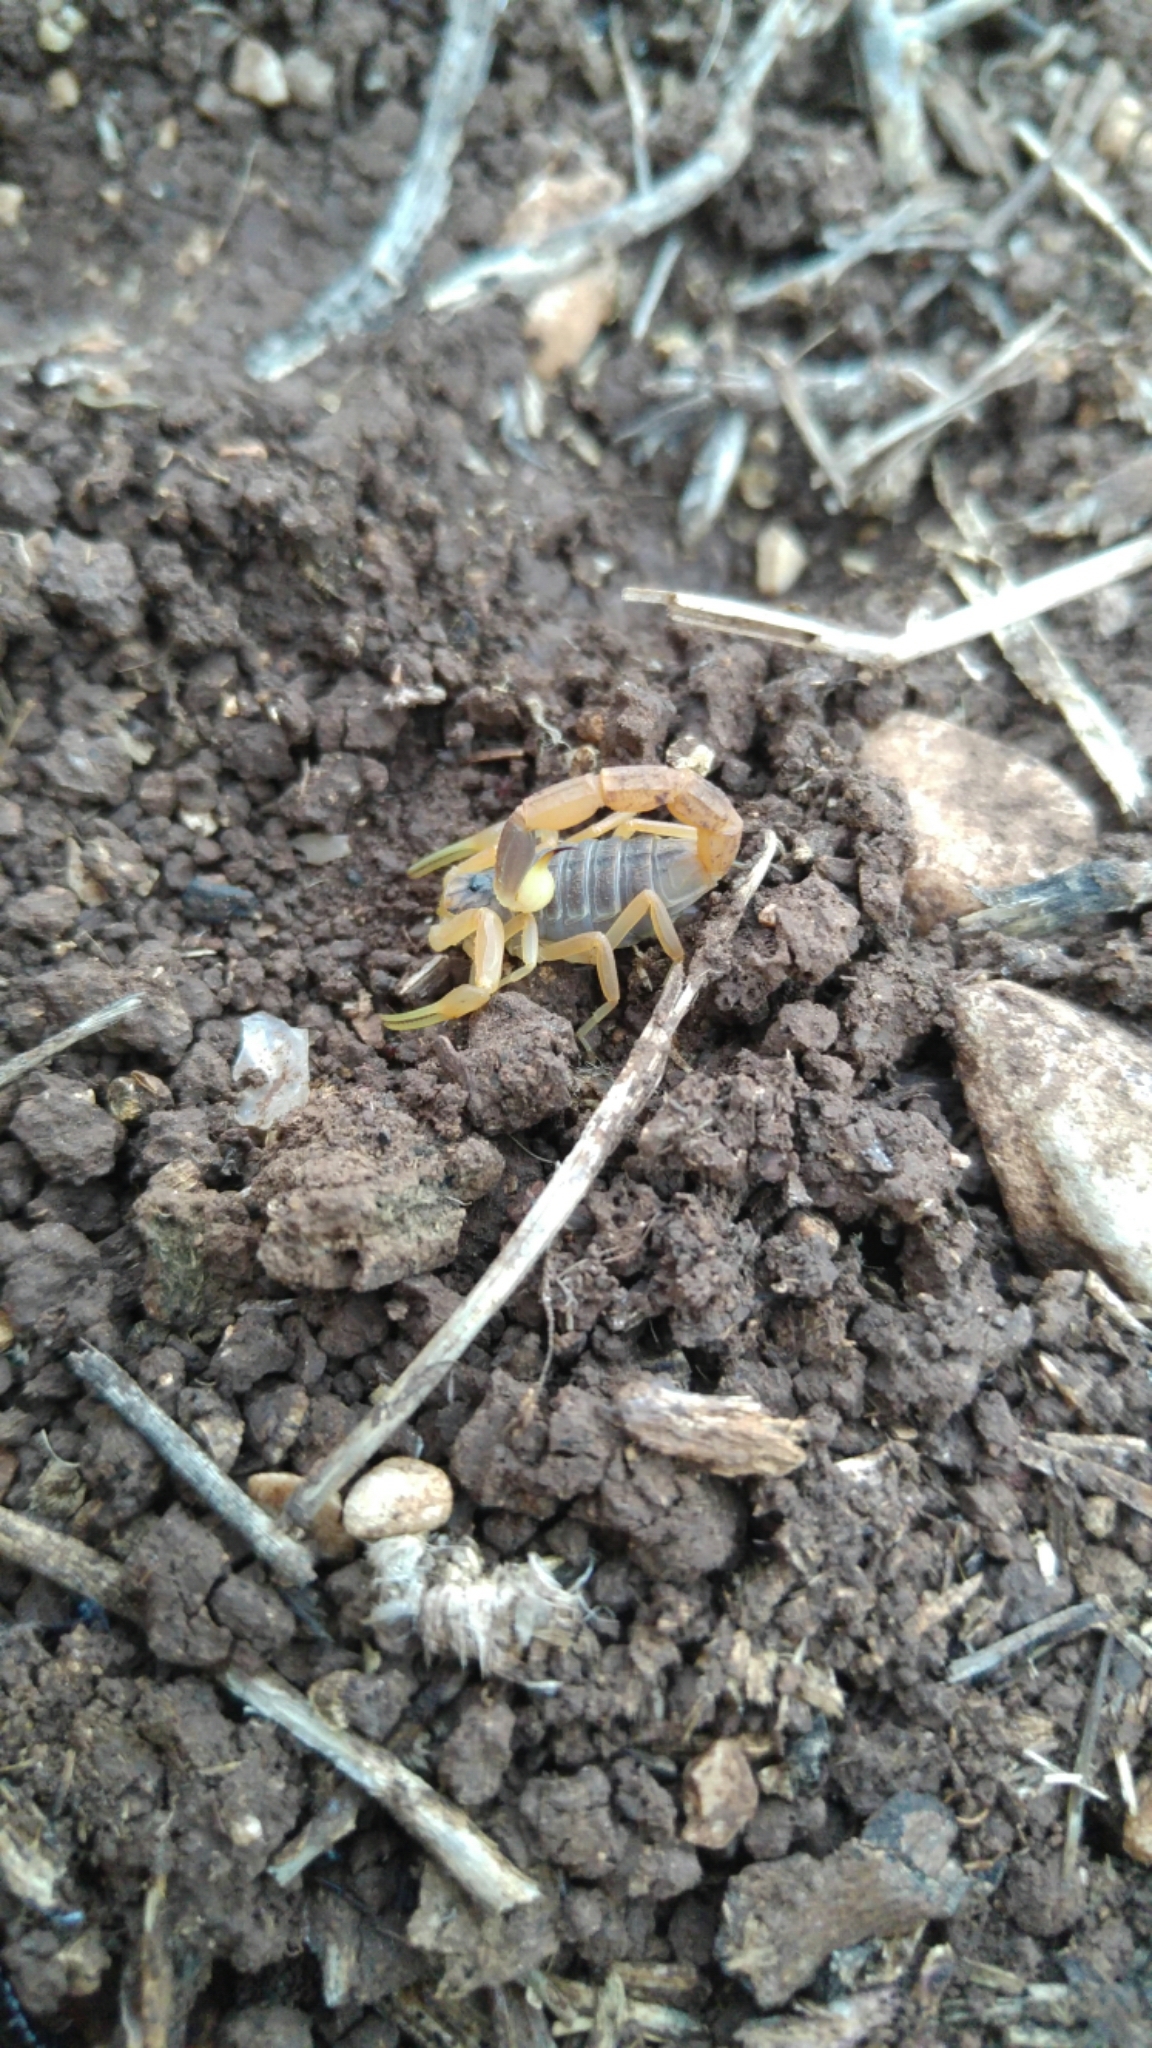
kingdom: Animalia
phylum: Arthropoda
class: Arachnida
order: Scorpiones
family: Buthidae
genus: Leiurus
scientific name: Leiurus hebraeus
